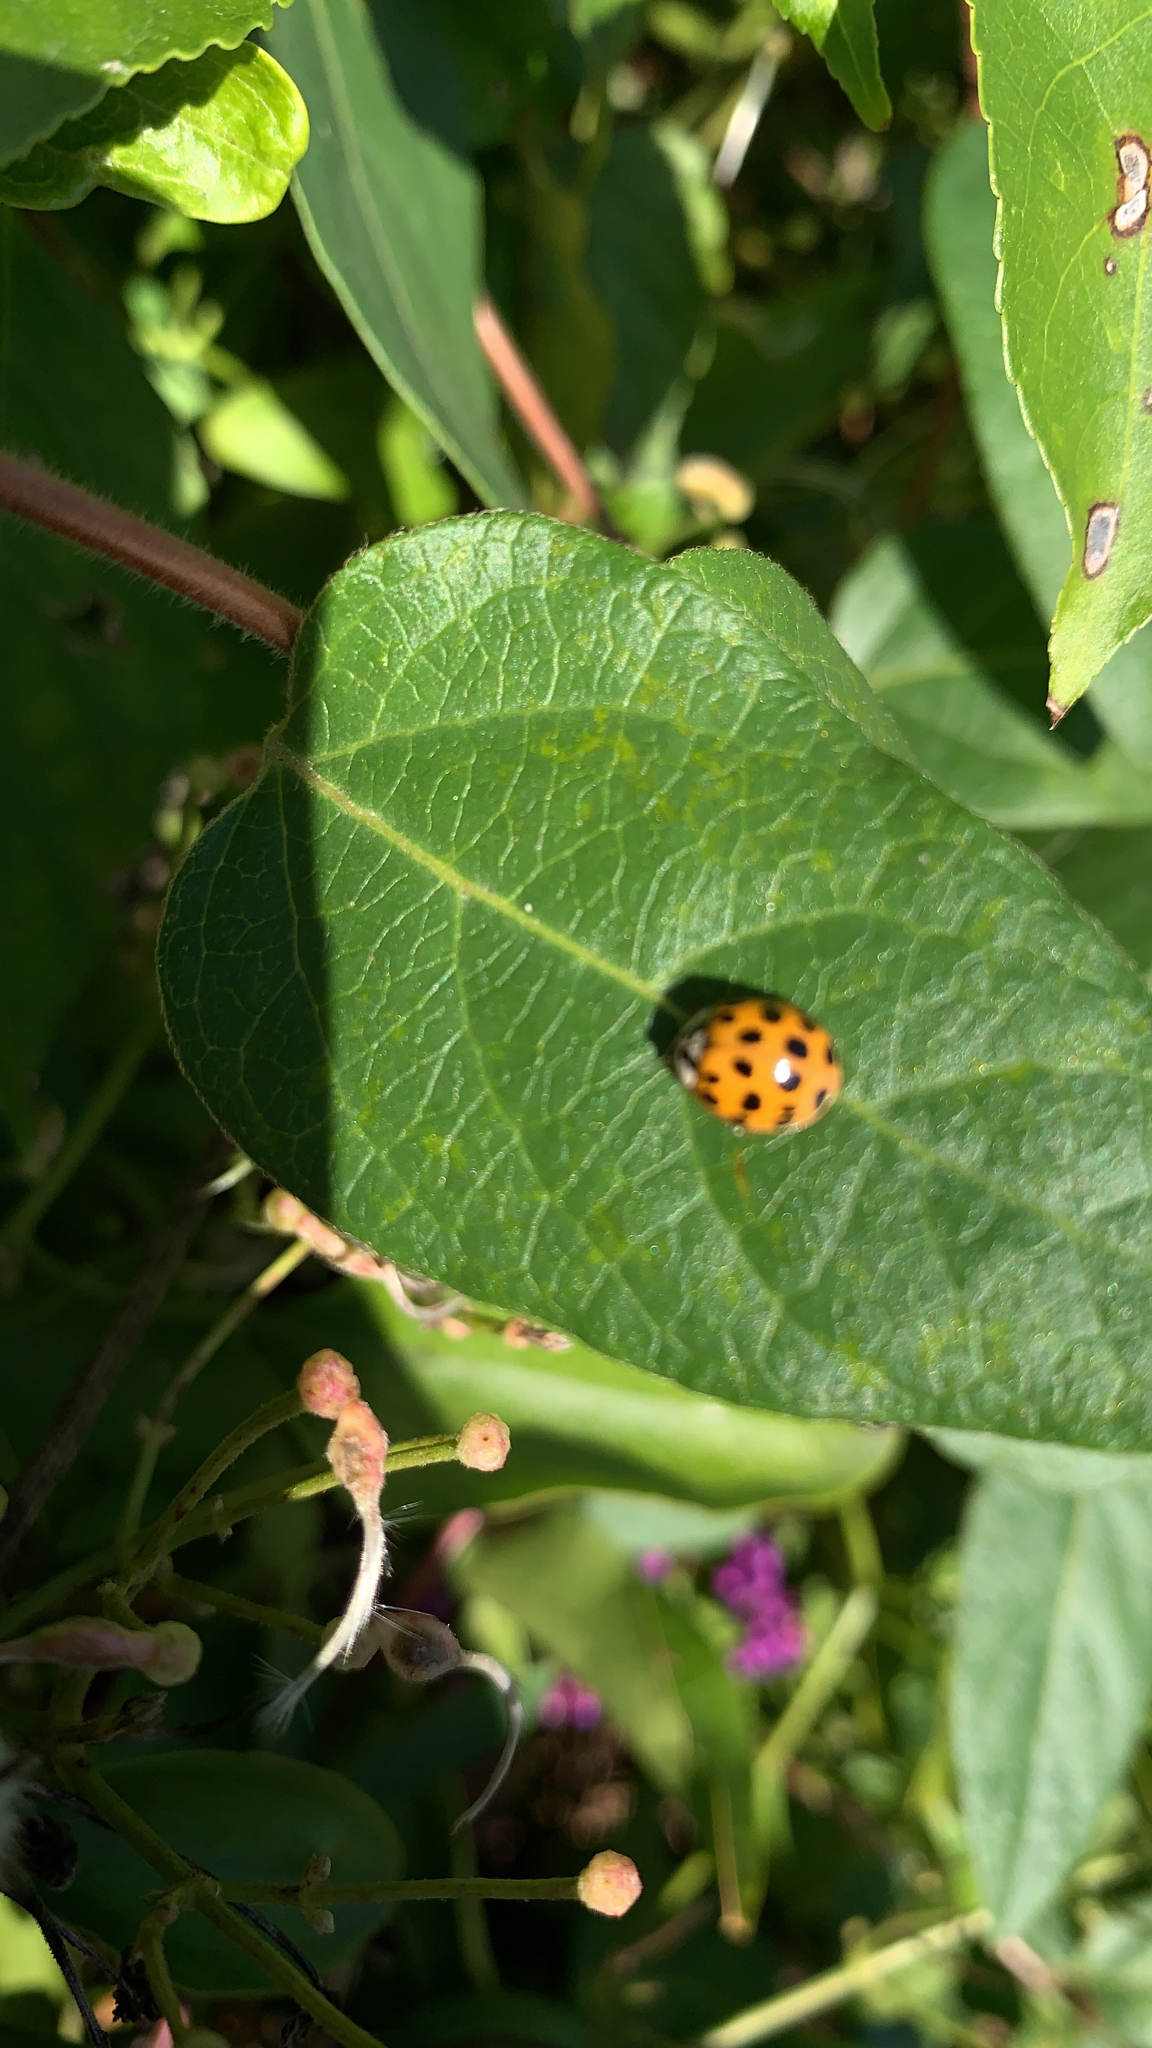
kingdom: Animalia
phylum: Arthropoda
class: Insecta
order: Coleoptera
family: Coccinellidae
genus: Harmonia
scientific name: Harmonia axyridis
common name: Harlequin ladybird
